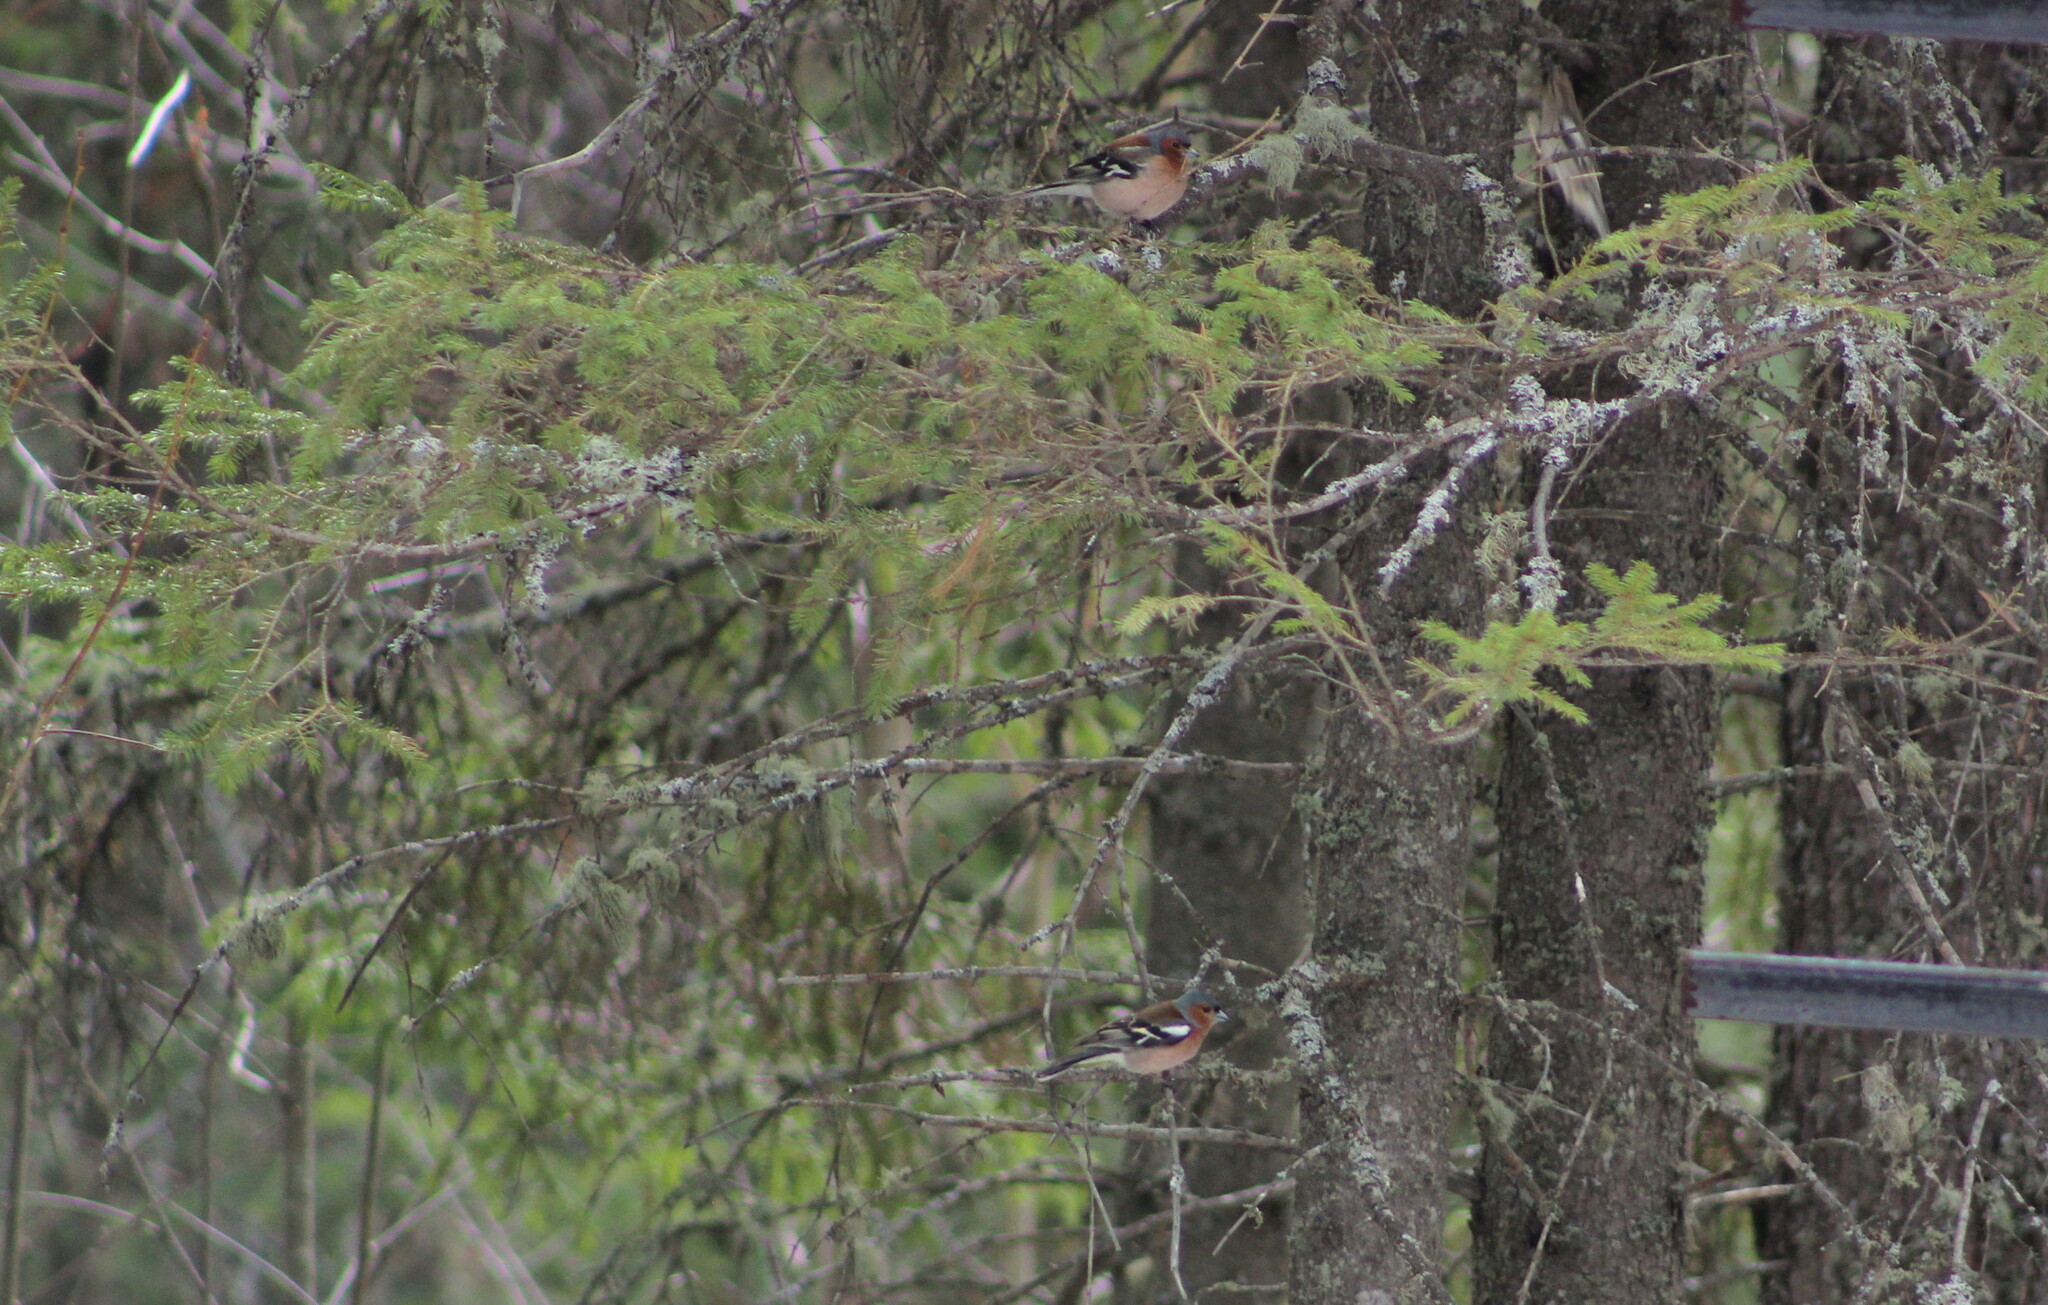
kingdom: Animalia
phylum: Chordata
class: Aves
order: Passeriformes
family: Fringillidae
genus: Fringilla
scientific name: Fringilla coelebs
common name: Common chaffinch
